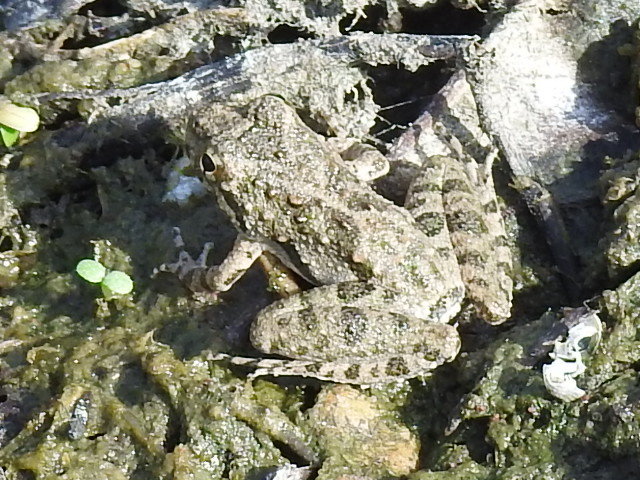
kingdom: Animalia
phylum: Chordata
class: Amphibia
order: Anura
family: Hylidae
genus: Acris
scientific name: Acris blanchardi
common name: Blanchard's cricket frog
